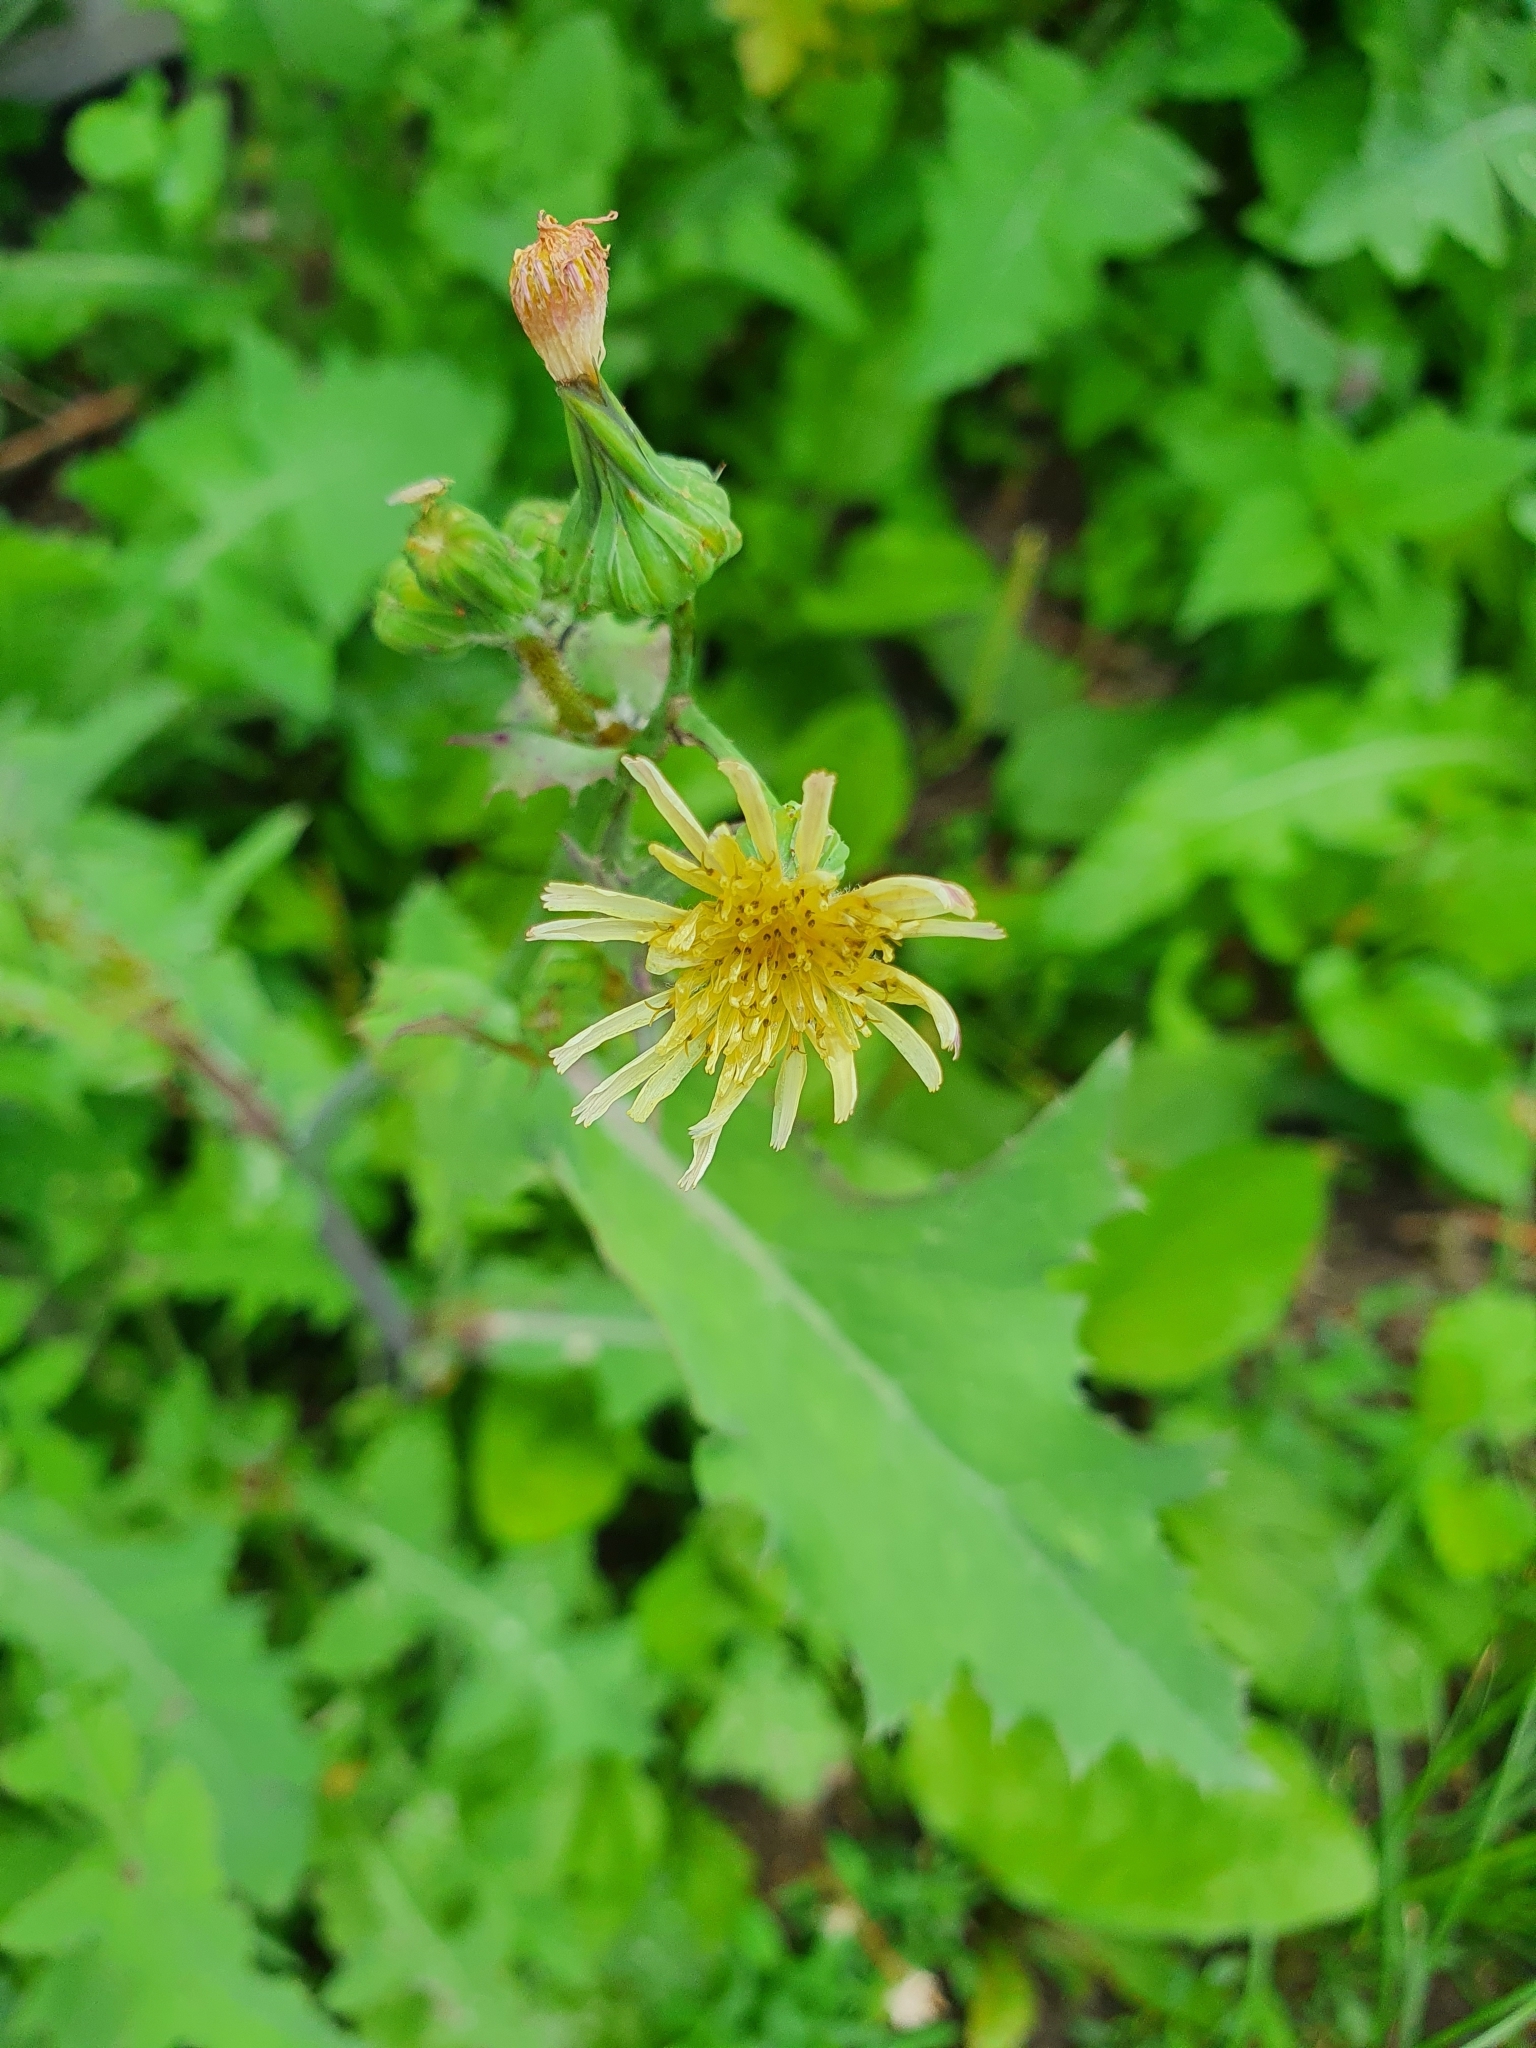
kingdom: Plantae
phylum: Tracheophyta
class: Magnoliopsida
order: Asterales
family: Asteraceae
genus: Sonchus
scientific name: Sonchus oleraceus
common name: Common sowthistle
